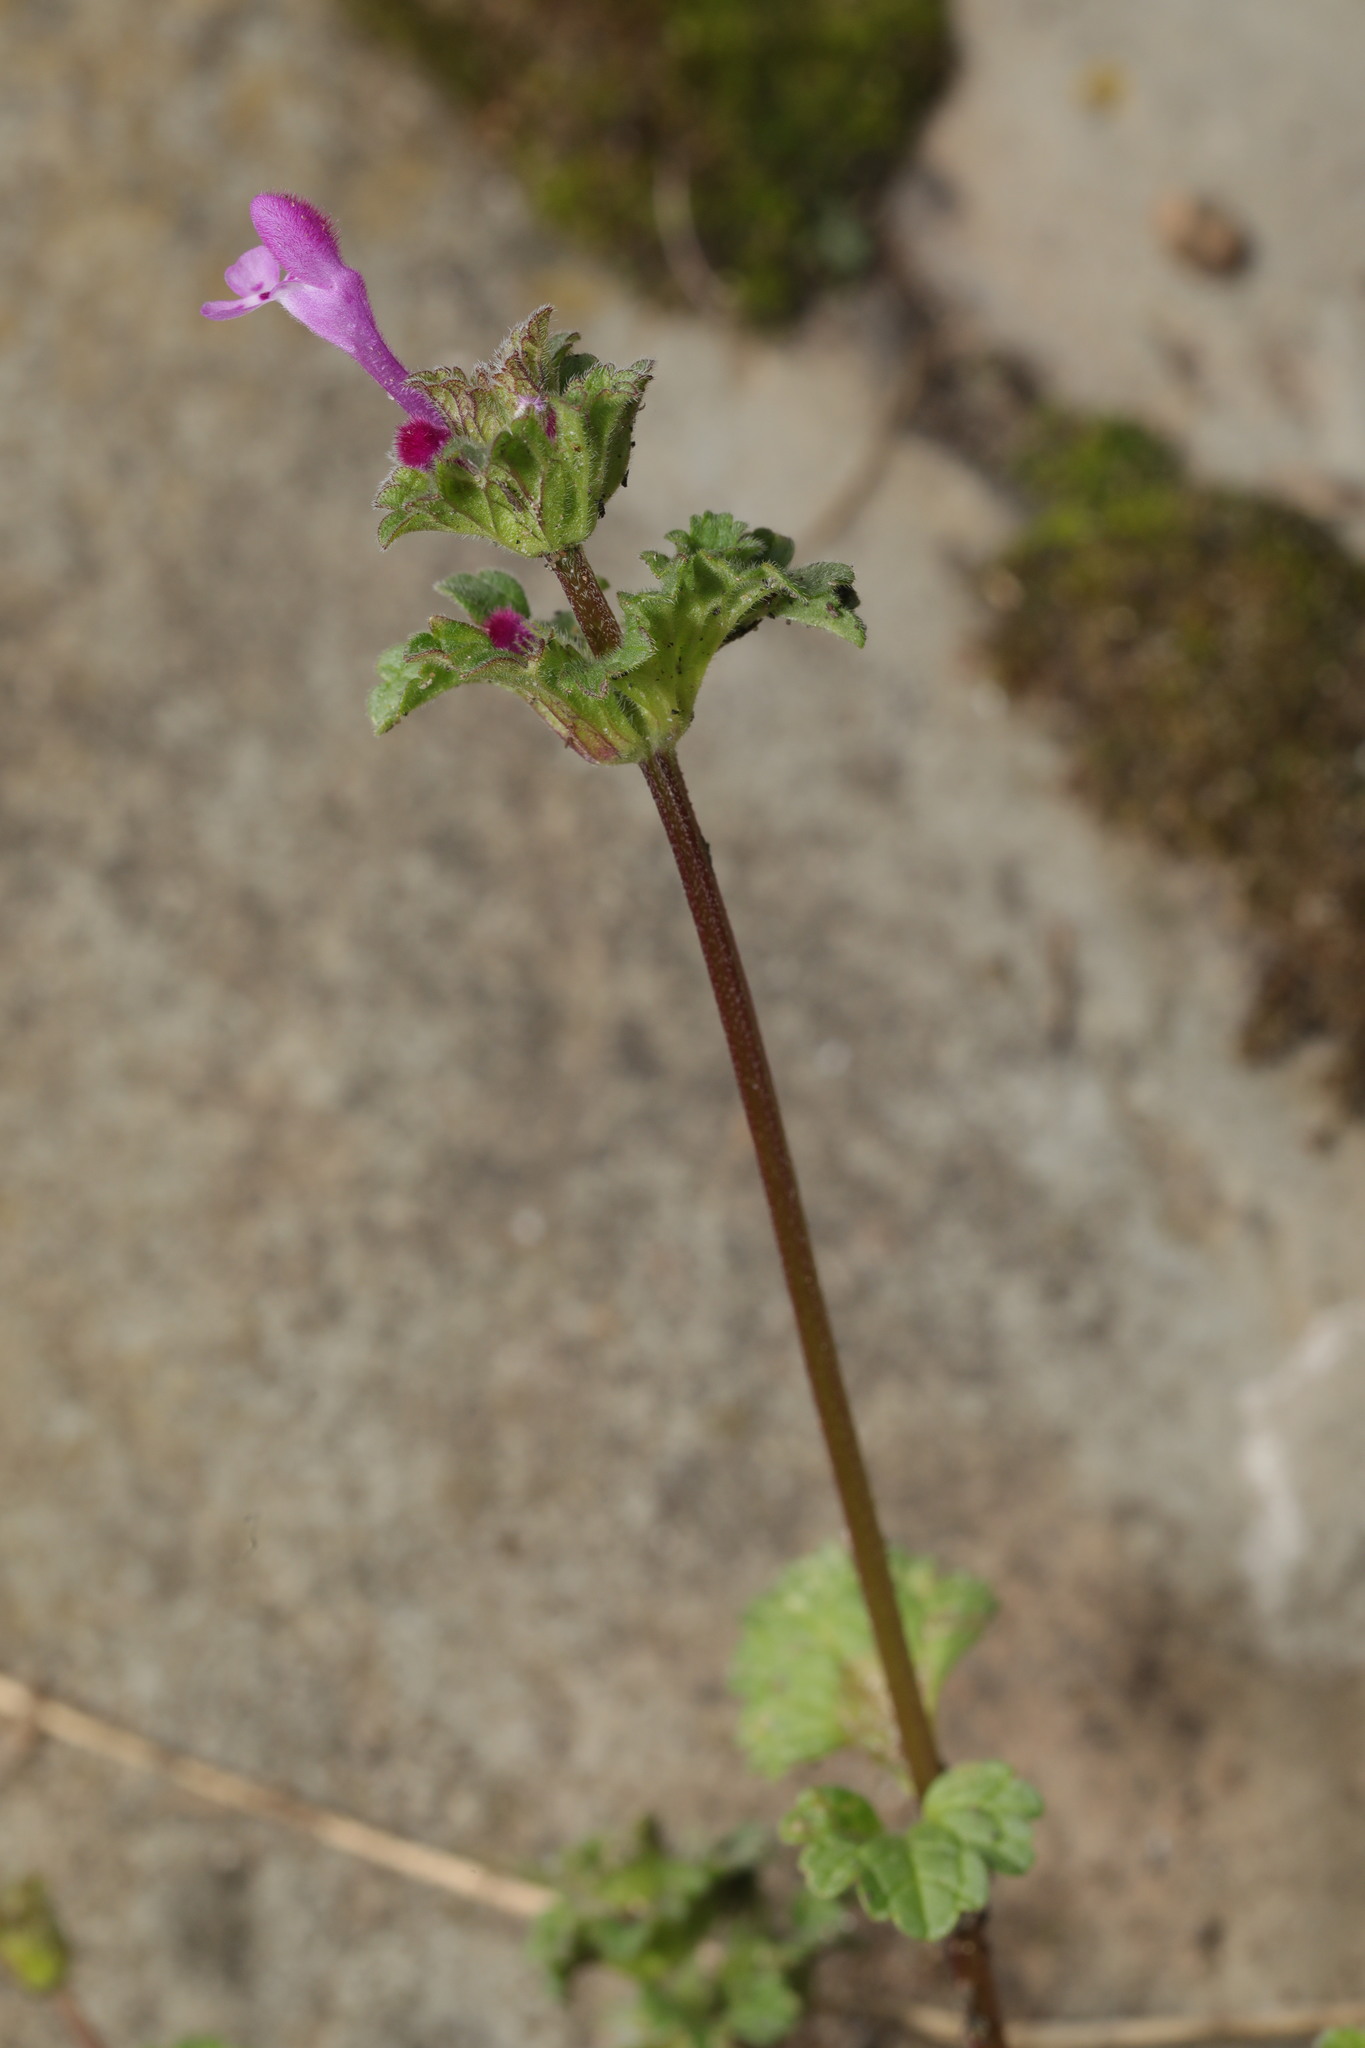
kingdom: Plantae
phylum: Tracheophyta
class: Magnoliopsida
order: Lamiales
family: Lamiaceae
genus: Lamium
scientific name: Lamium amplexicaule
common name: Henbit dead-nettle
